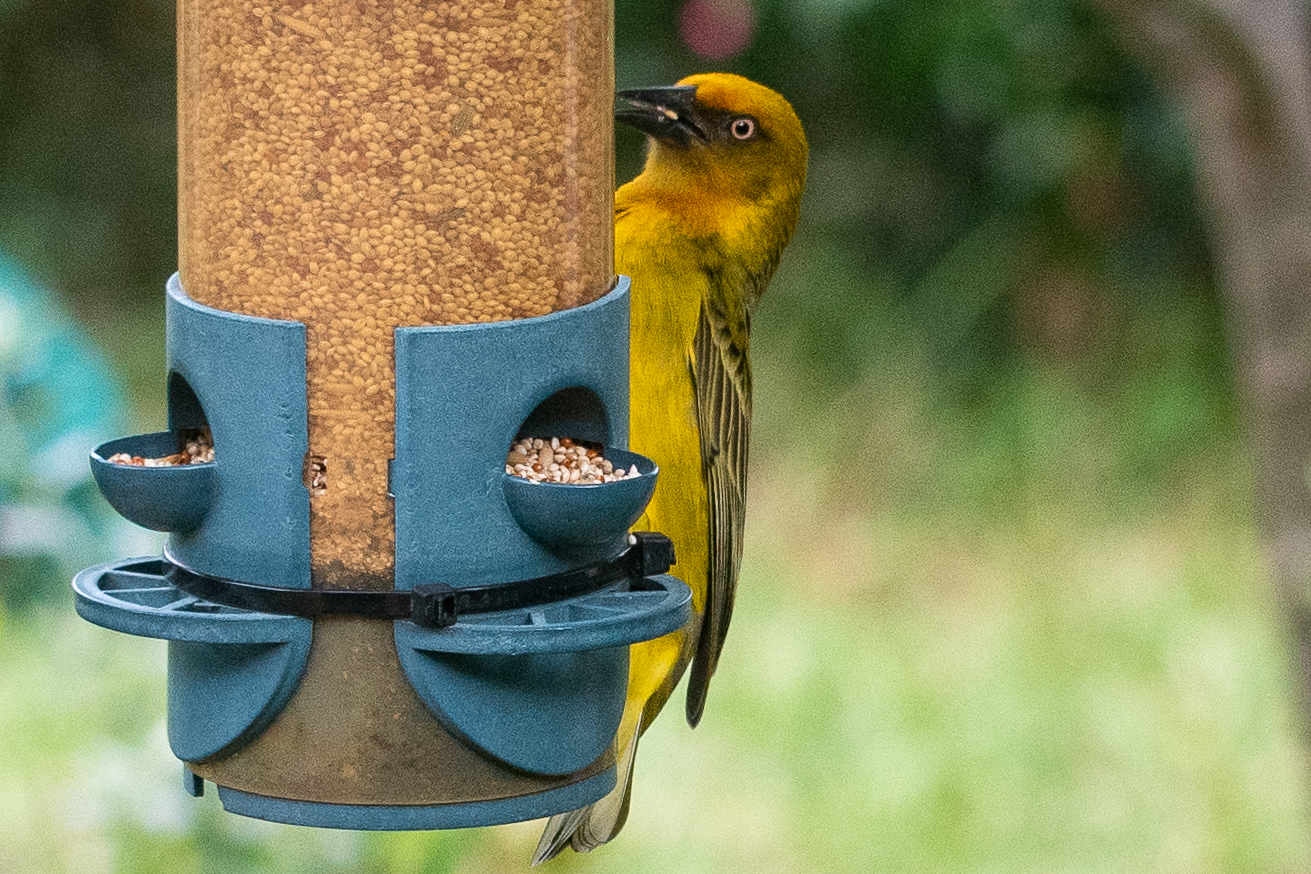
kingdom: Animalia
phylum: Chordata
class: Aves
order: Passeriformes
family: Ploceidae
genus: Ploceus
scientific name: Ploceus capensis
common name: Cape weaver
